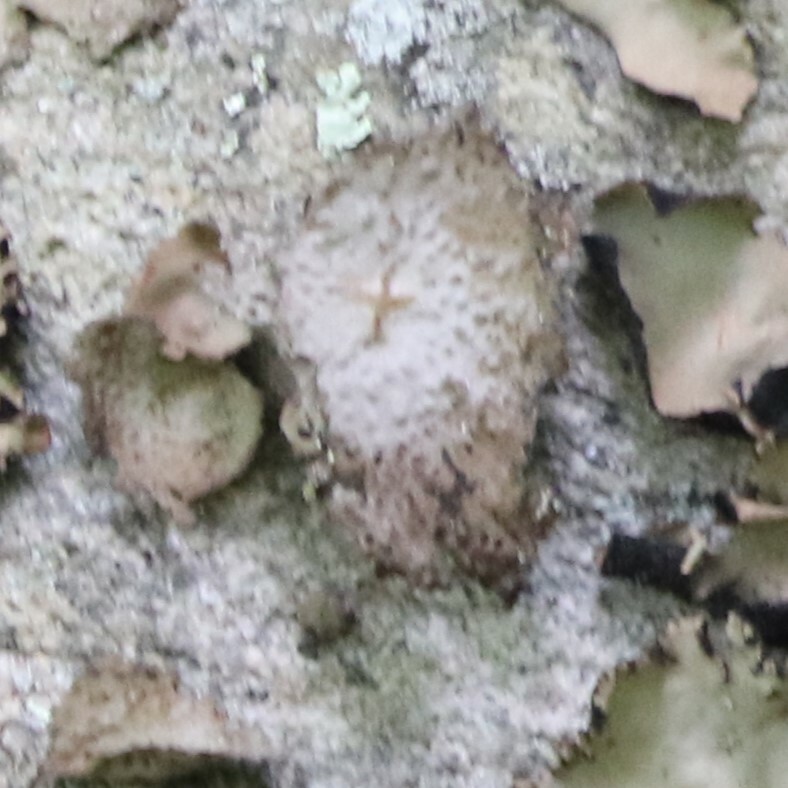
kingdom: Fungi
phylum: Ascomycota
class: Lecanoromycetes
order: Umbilicariales
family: Umbilicariaceae
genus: Lasallia
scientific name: Lasallia papulosa
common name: Common toadskin lichen
